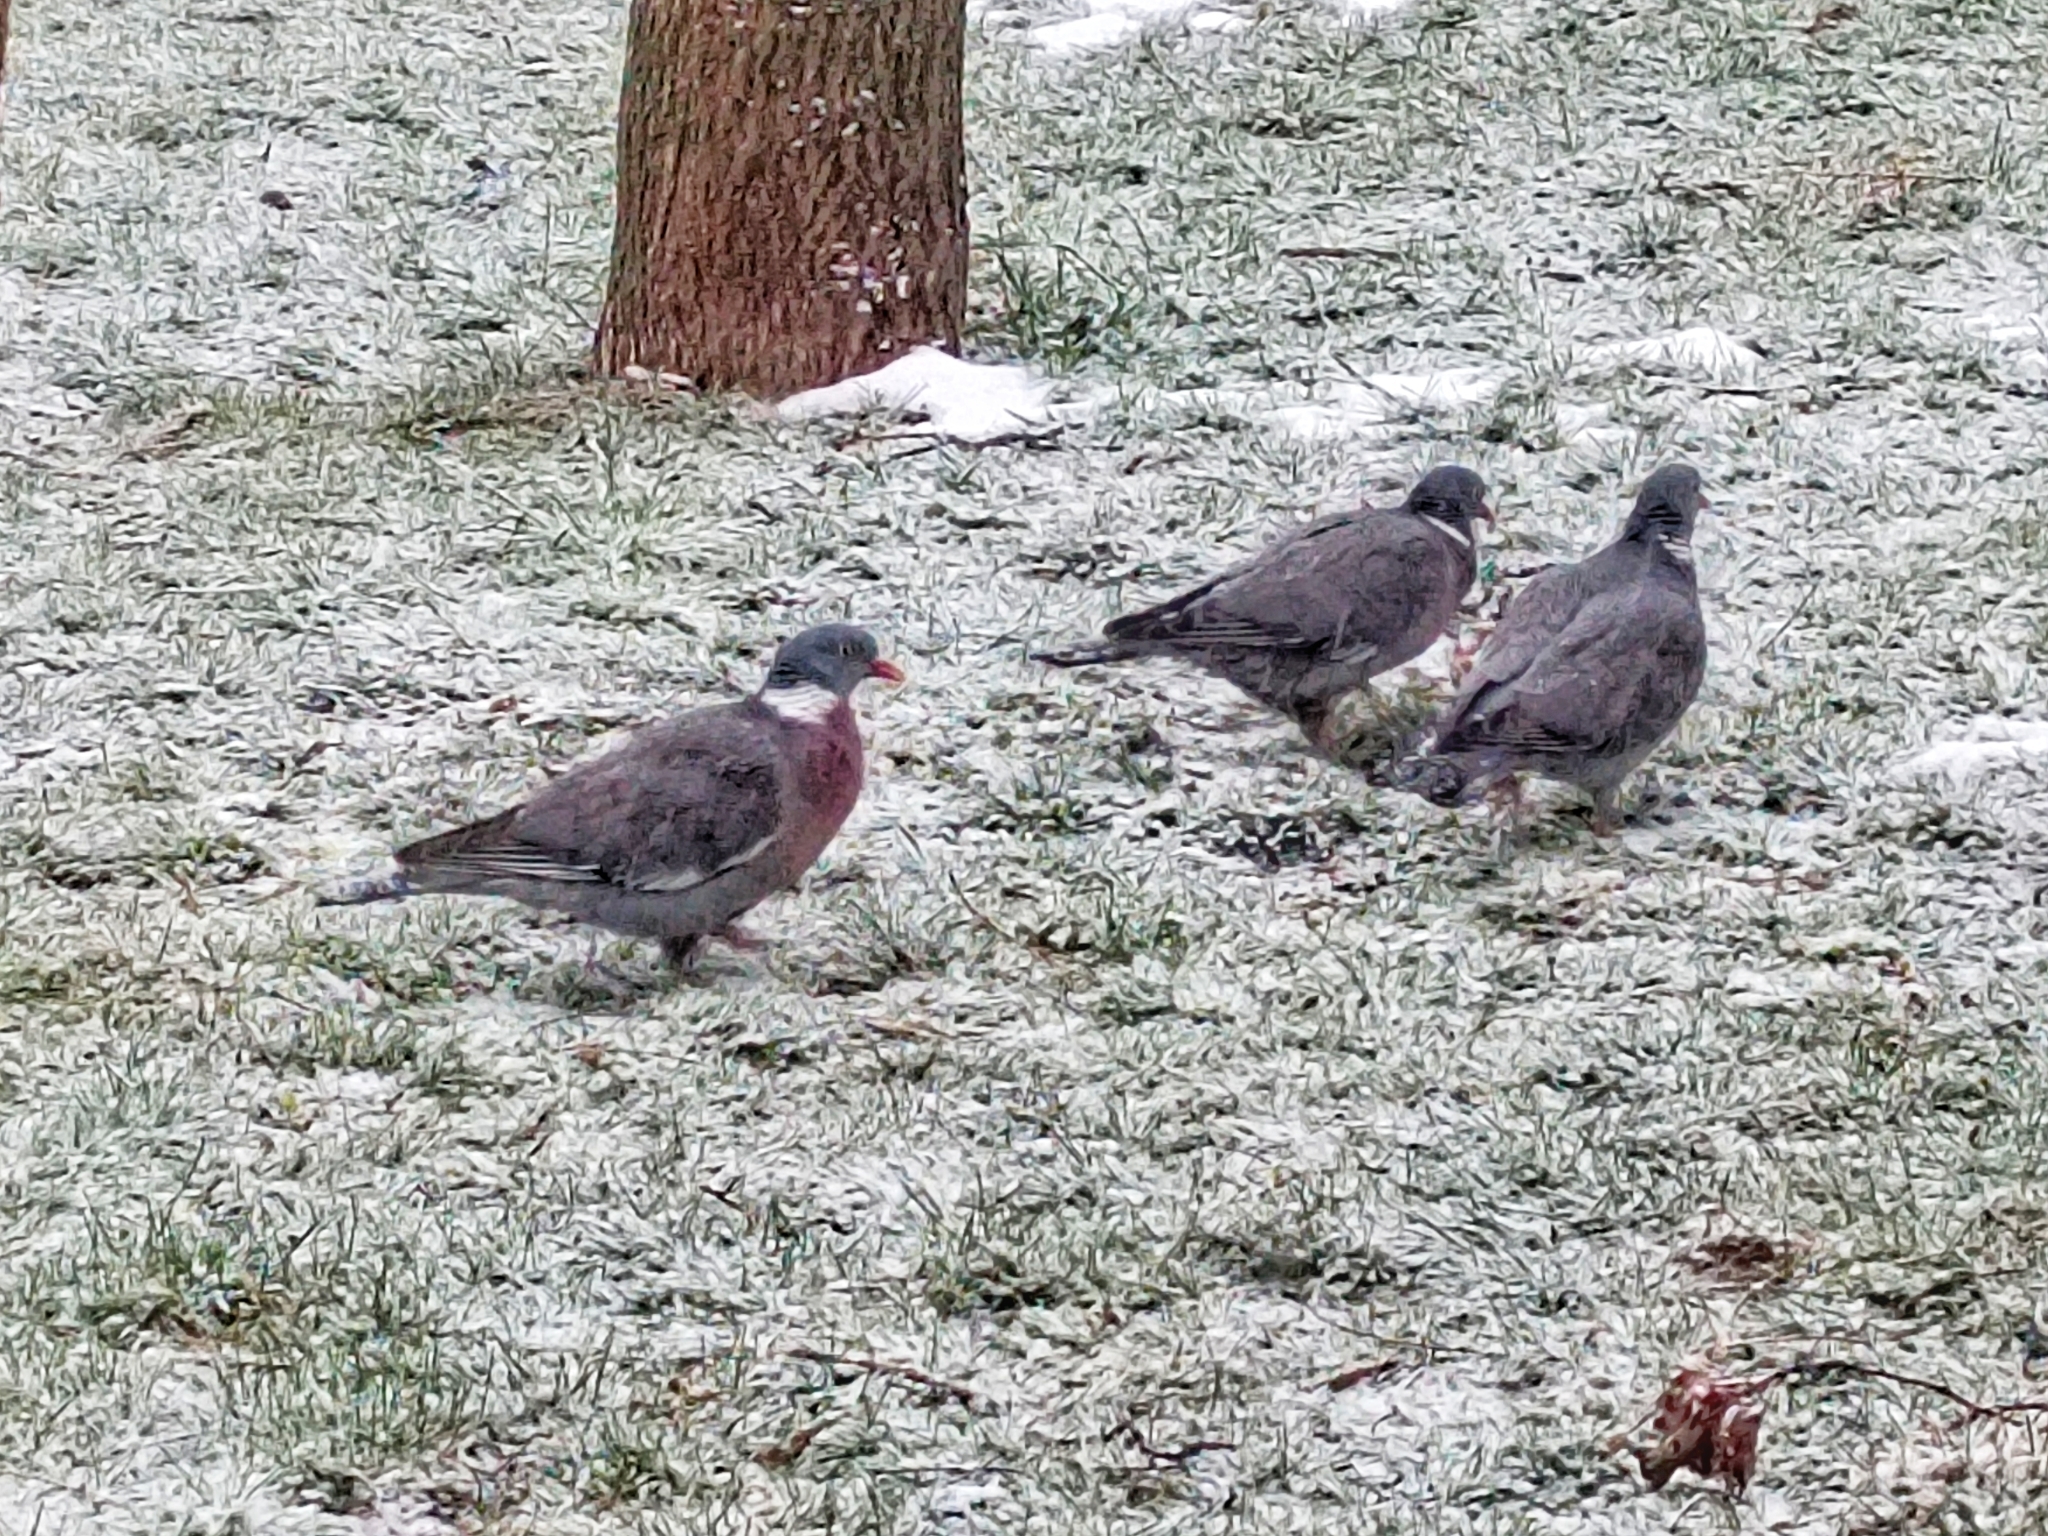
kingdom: Animalia
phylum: Chordata
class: Aves
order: Columbiformes
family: Columbidae
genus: Columba
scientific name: Columba palumbus
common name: Common wood pigeon
